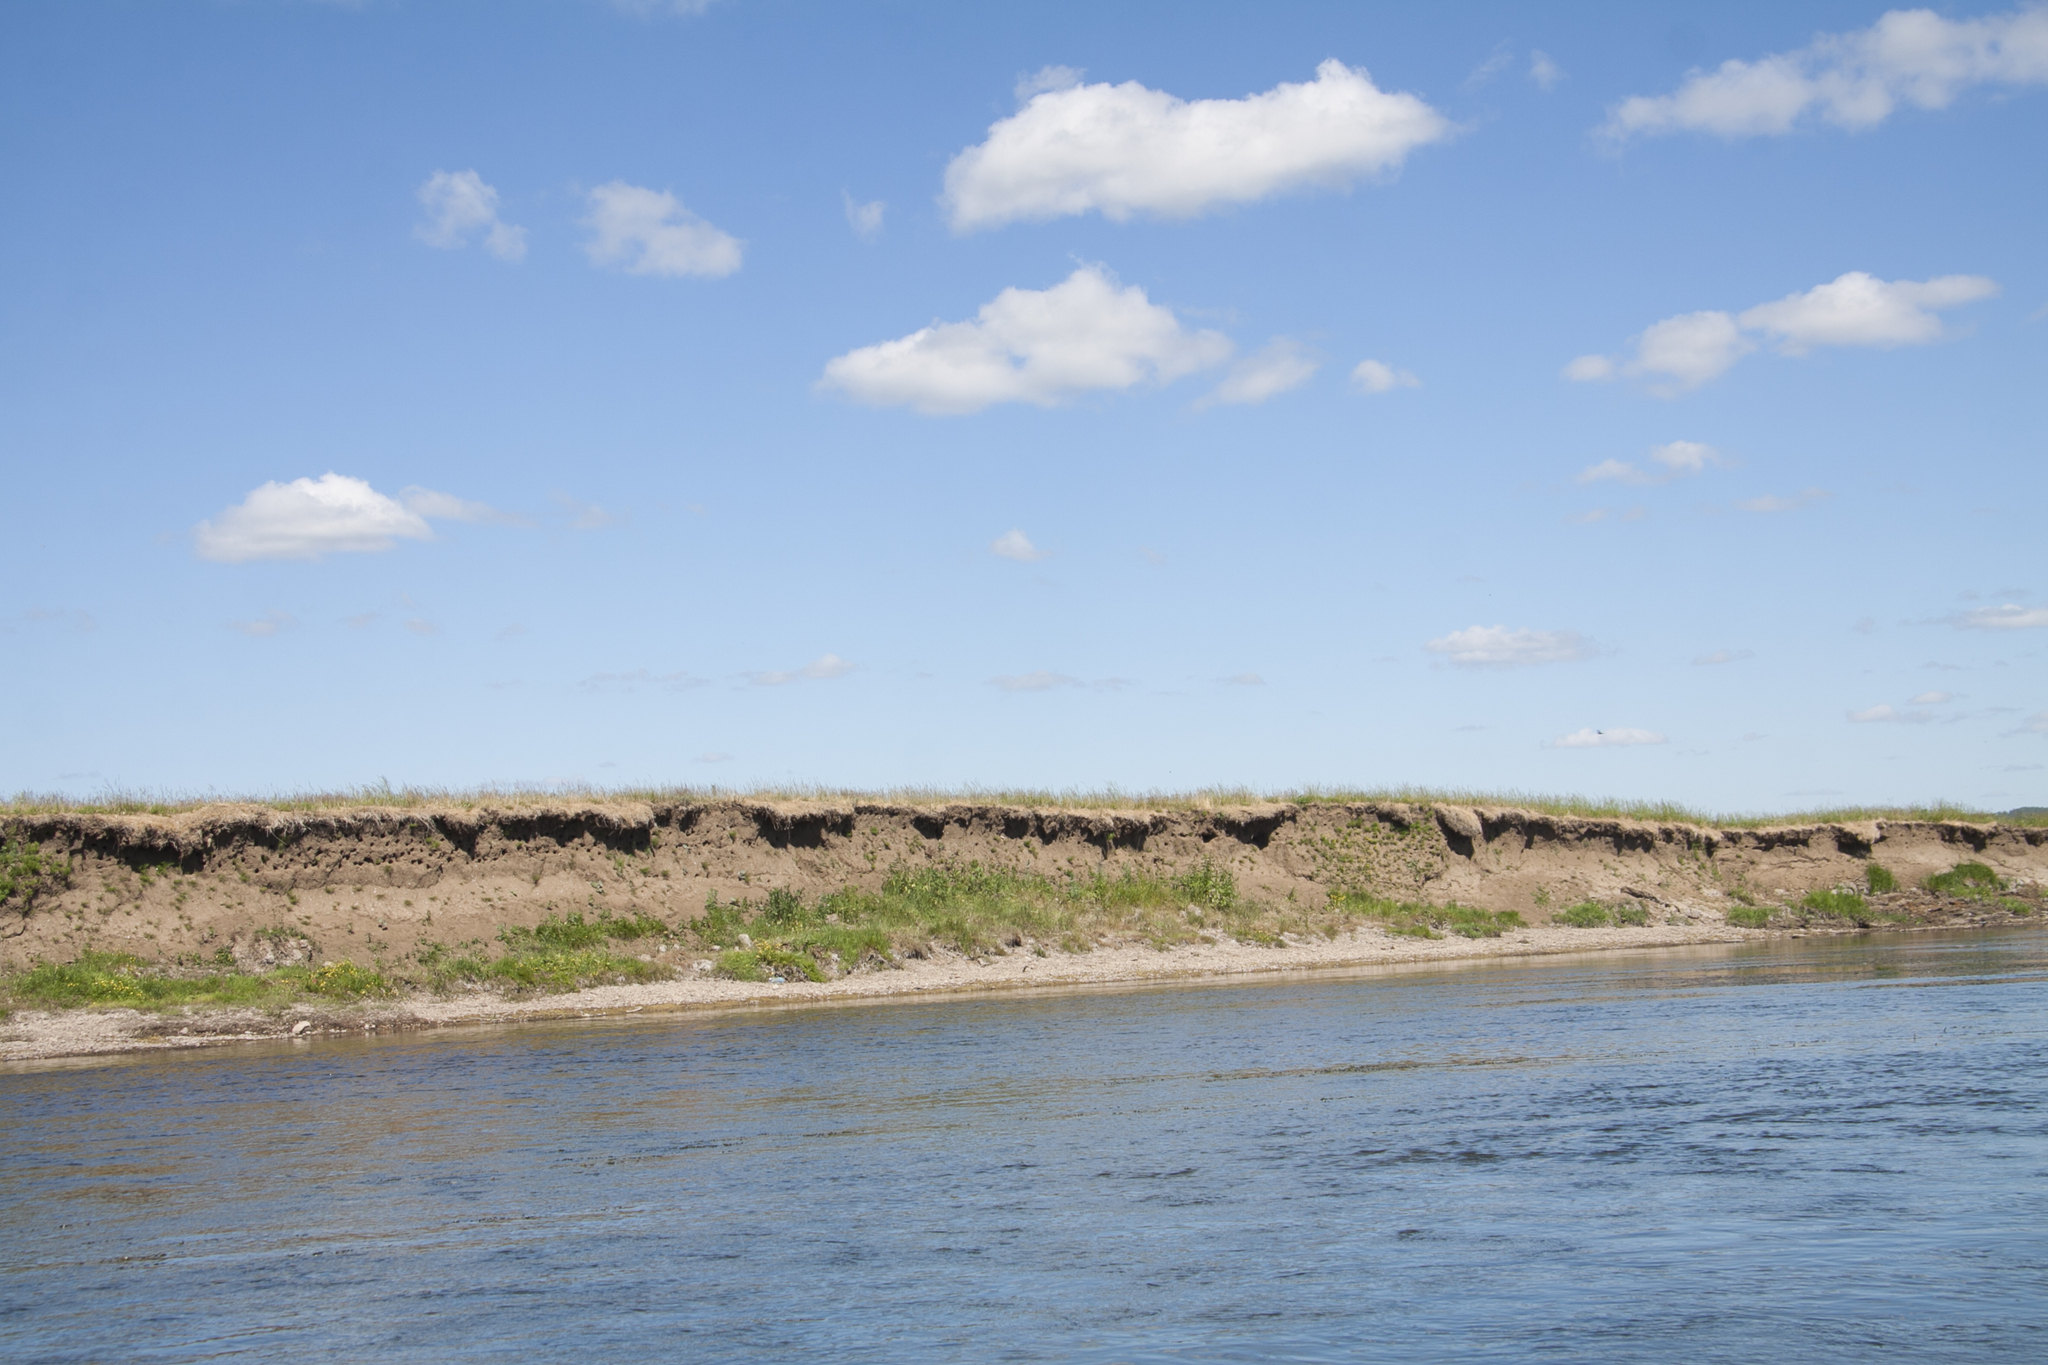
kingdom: Animalia
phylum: Chordata
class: Aves
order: Passeriformes
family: Hirundinidae
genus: Riparia
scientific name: Riparia riparia
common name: Sand martin
